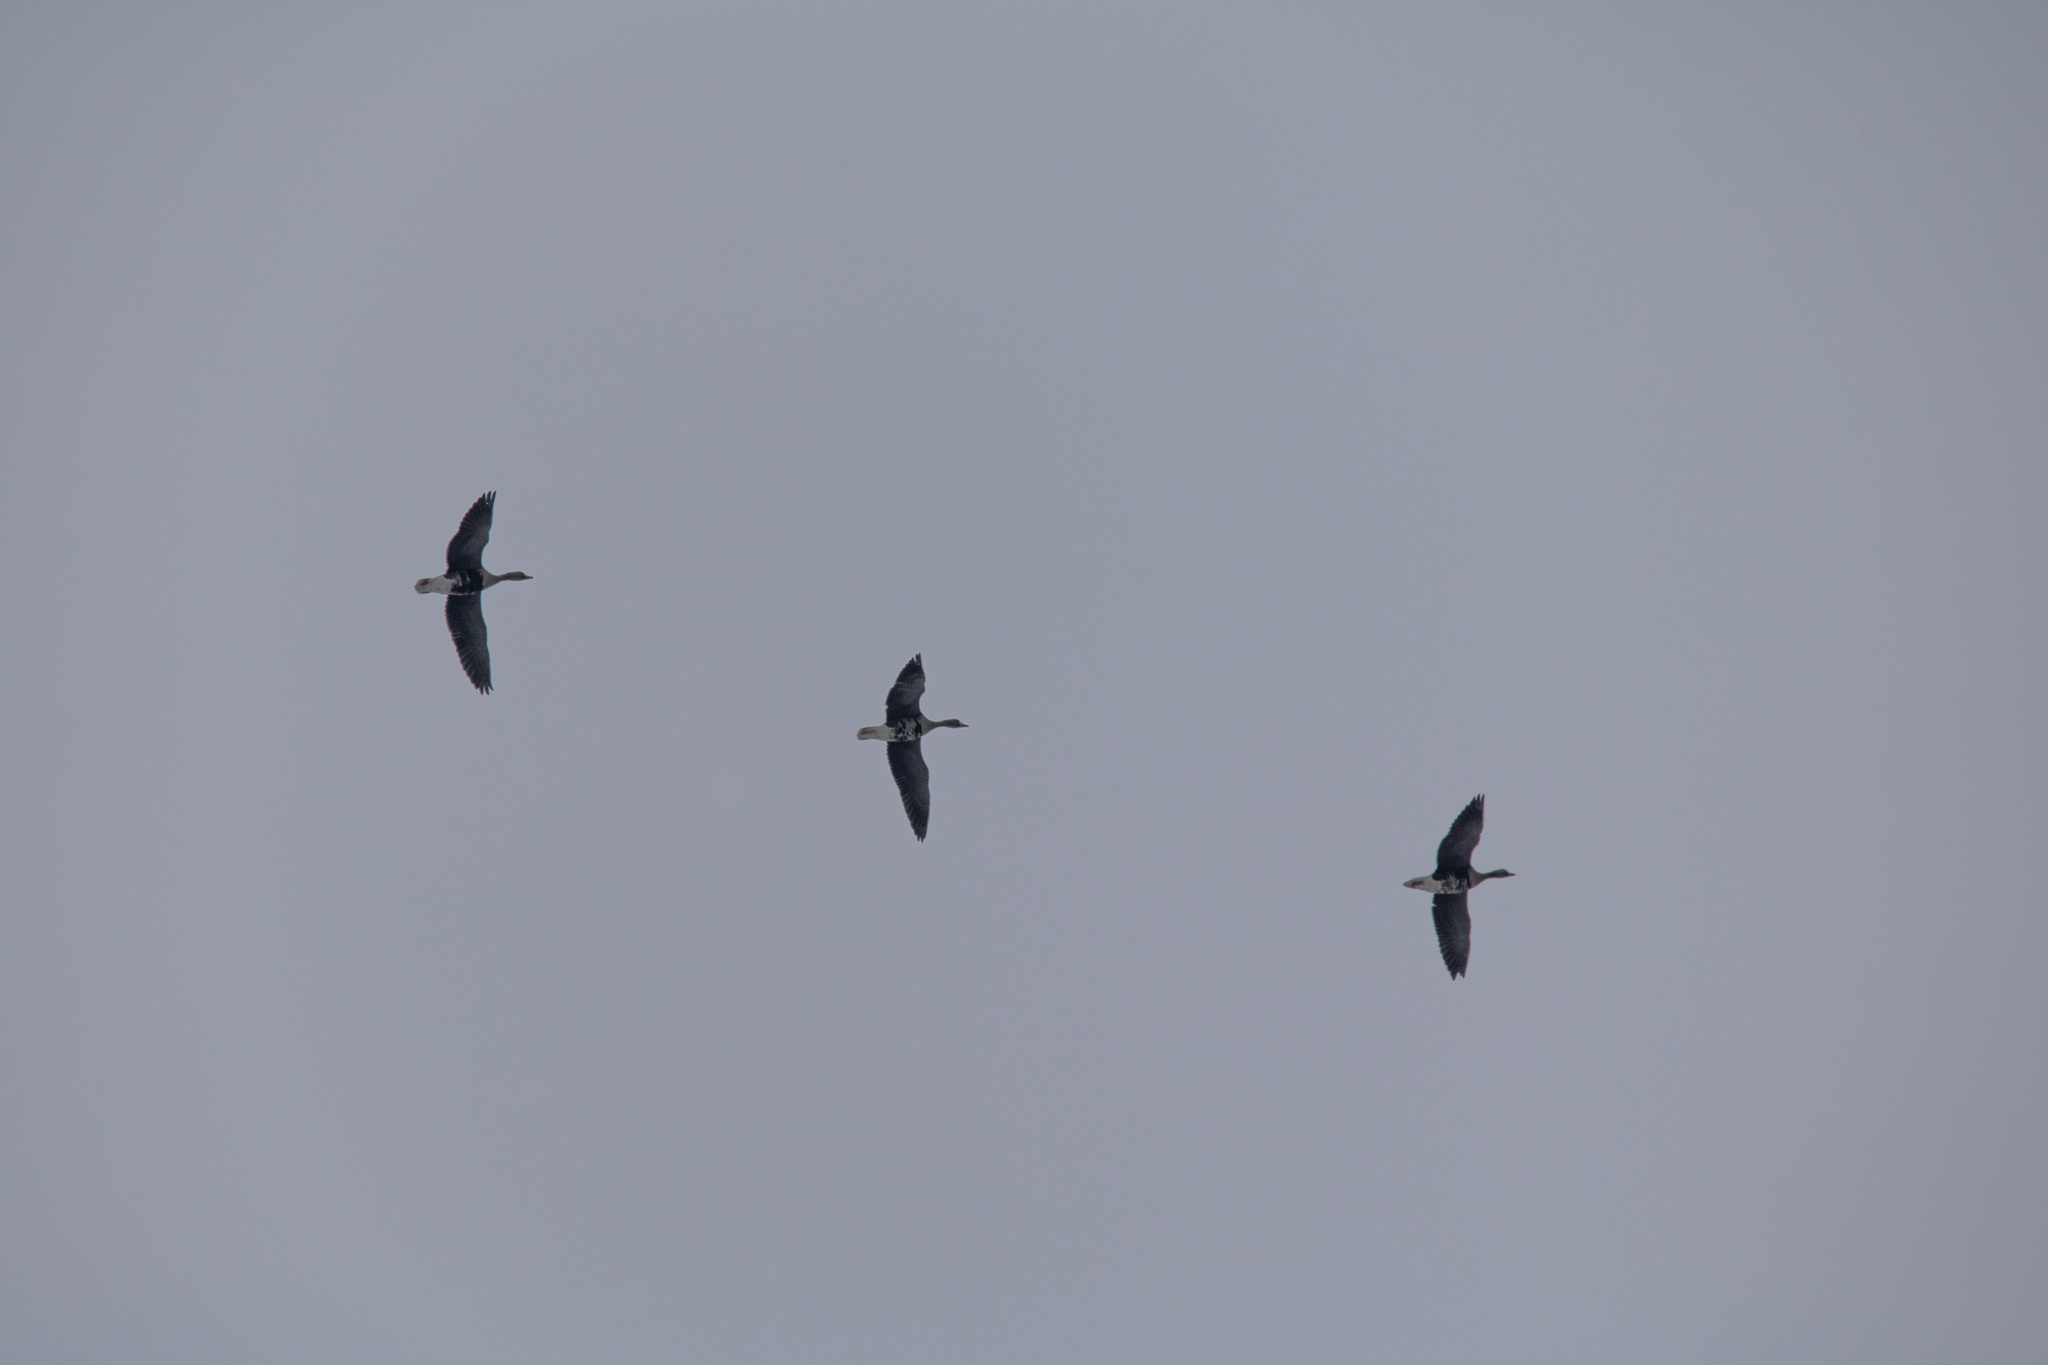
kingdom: Animalia
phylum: Chordata
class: Aves
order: Anseriformes
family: Anatidae
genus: Anser
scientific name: Anser albifrons
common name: Greater white-fronted goose
